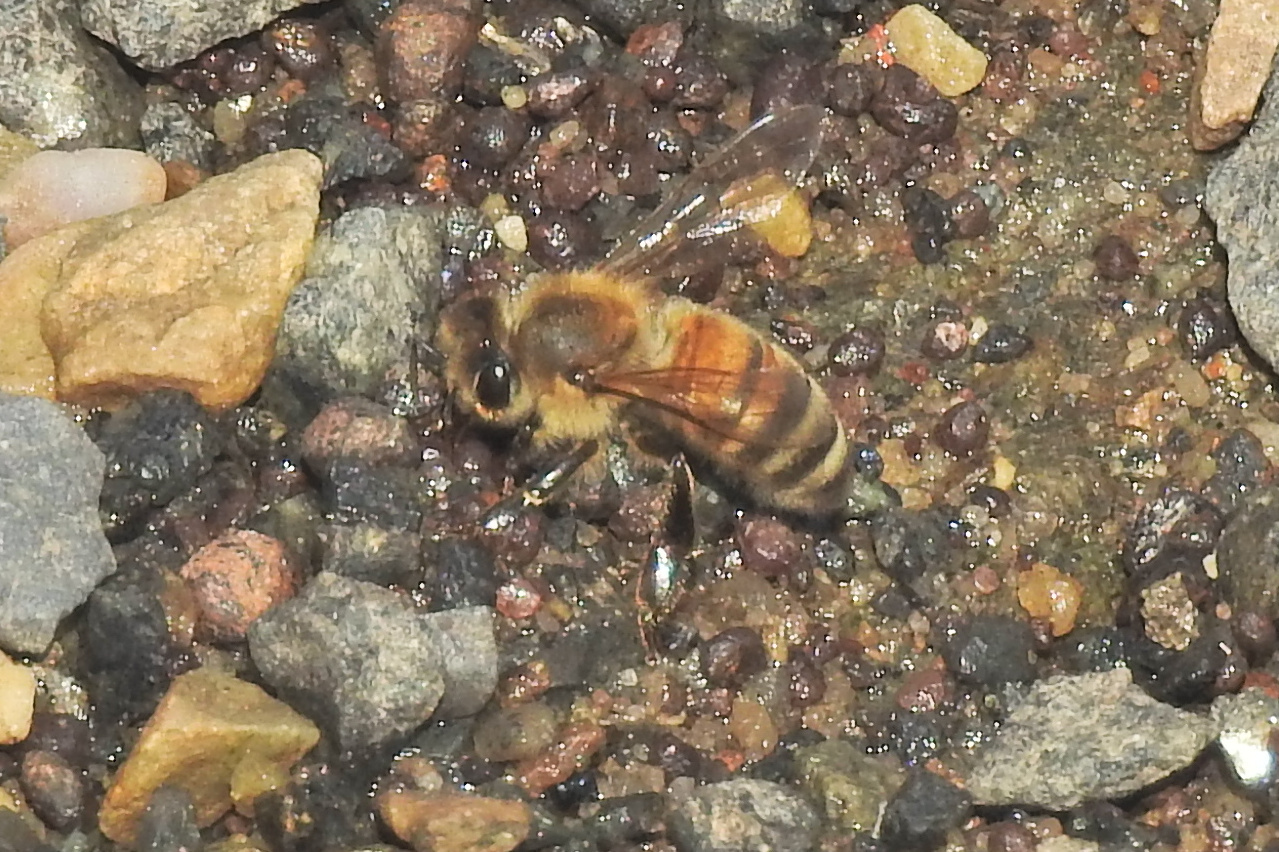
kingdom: Animalia
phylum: Arthropoda
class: Insecta
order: Hymenoptera
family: Apidae
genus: Apis
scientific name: Apis mellifera
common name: Honey bee
